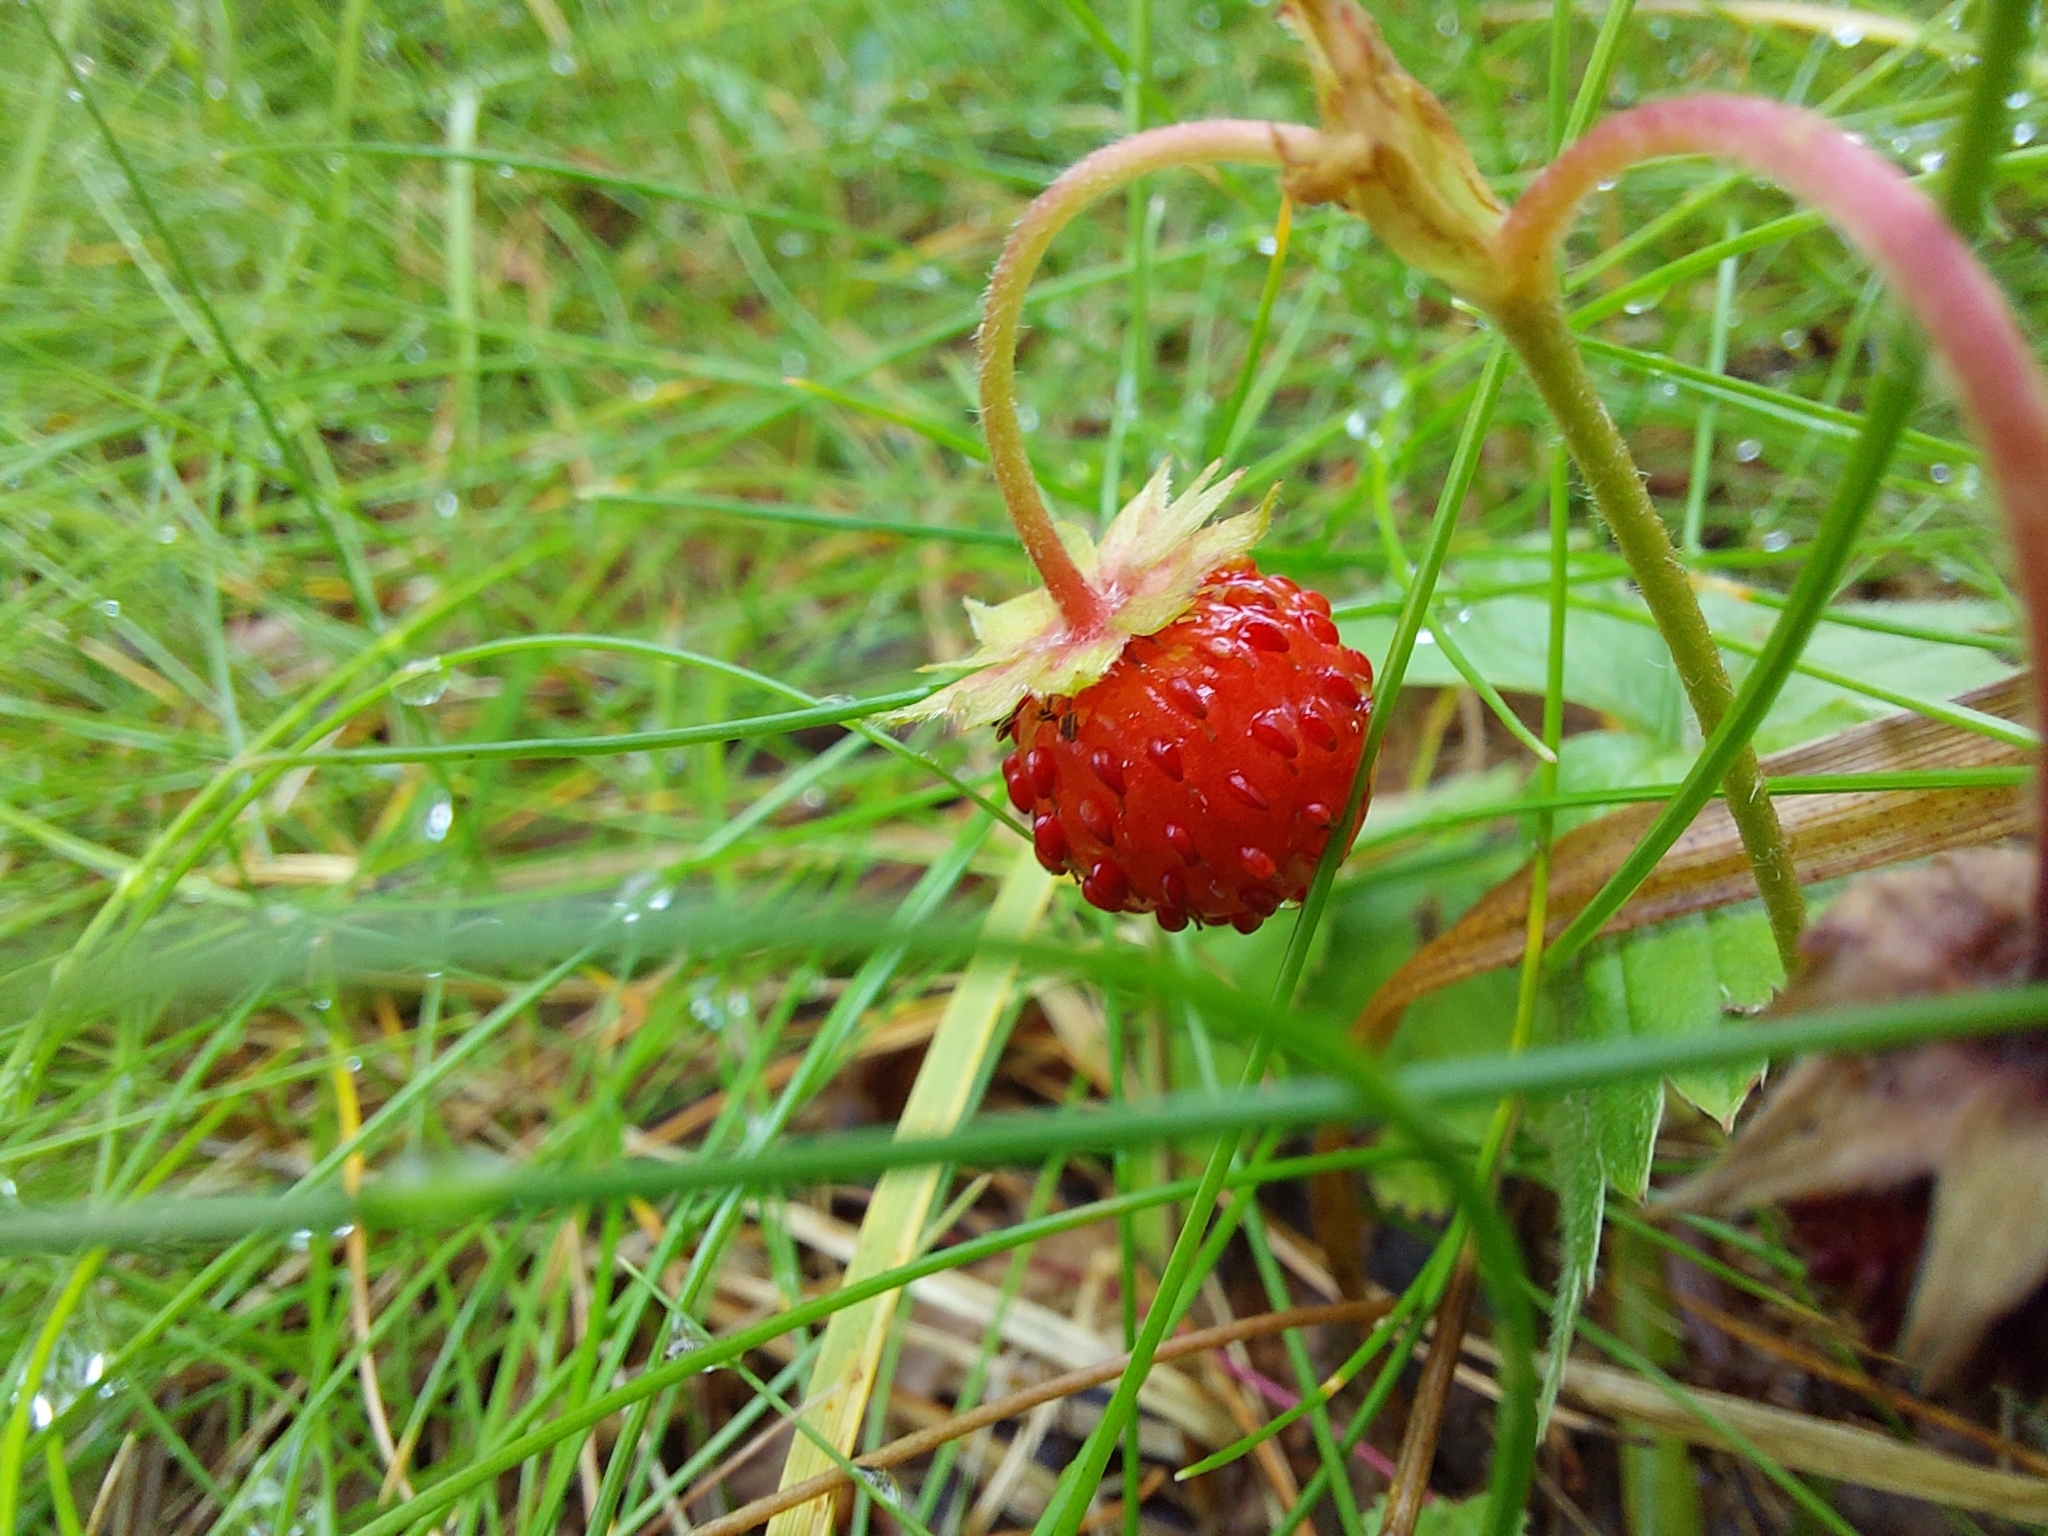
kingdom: Plantae
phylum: Tracheophyta
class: Magnoliopsida
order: Rosales
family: Rosaceae
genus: Fragaria
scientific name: Fragaria vesca
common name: Wild strawberry
